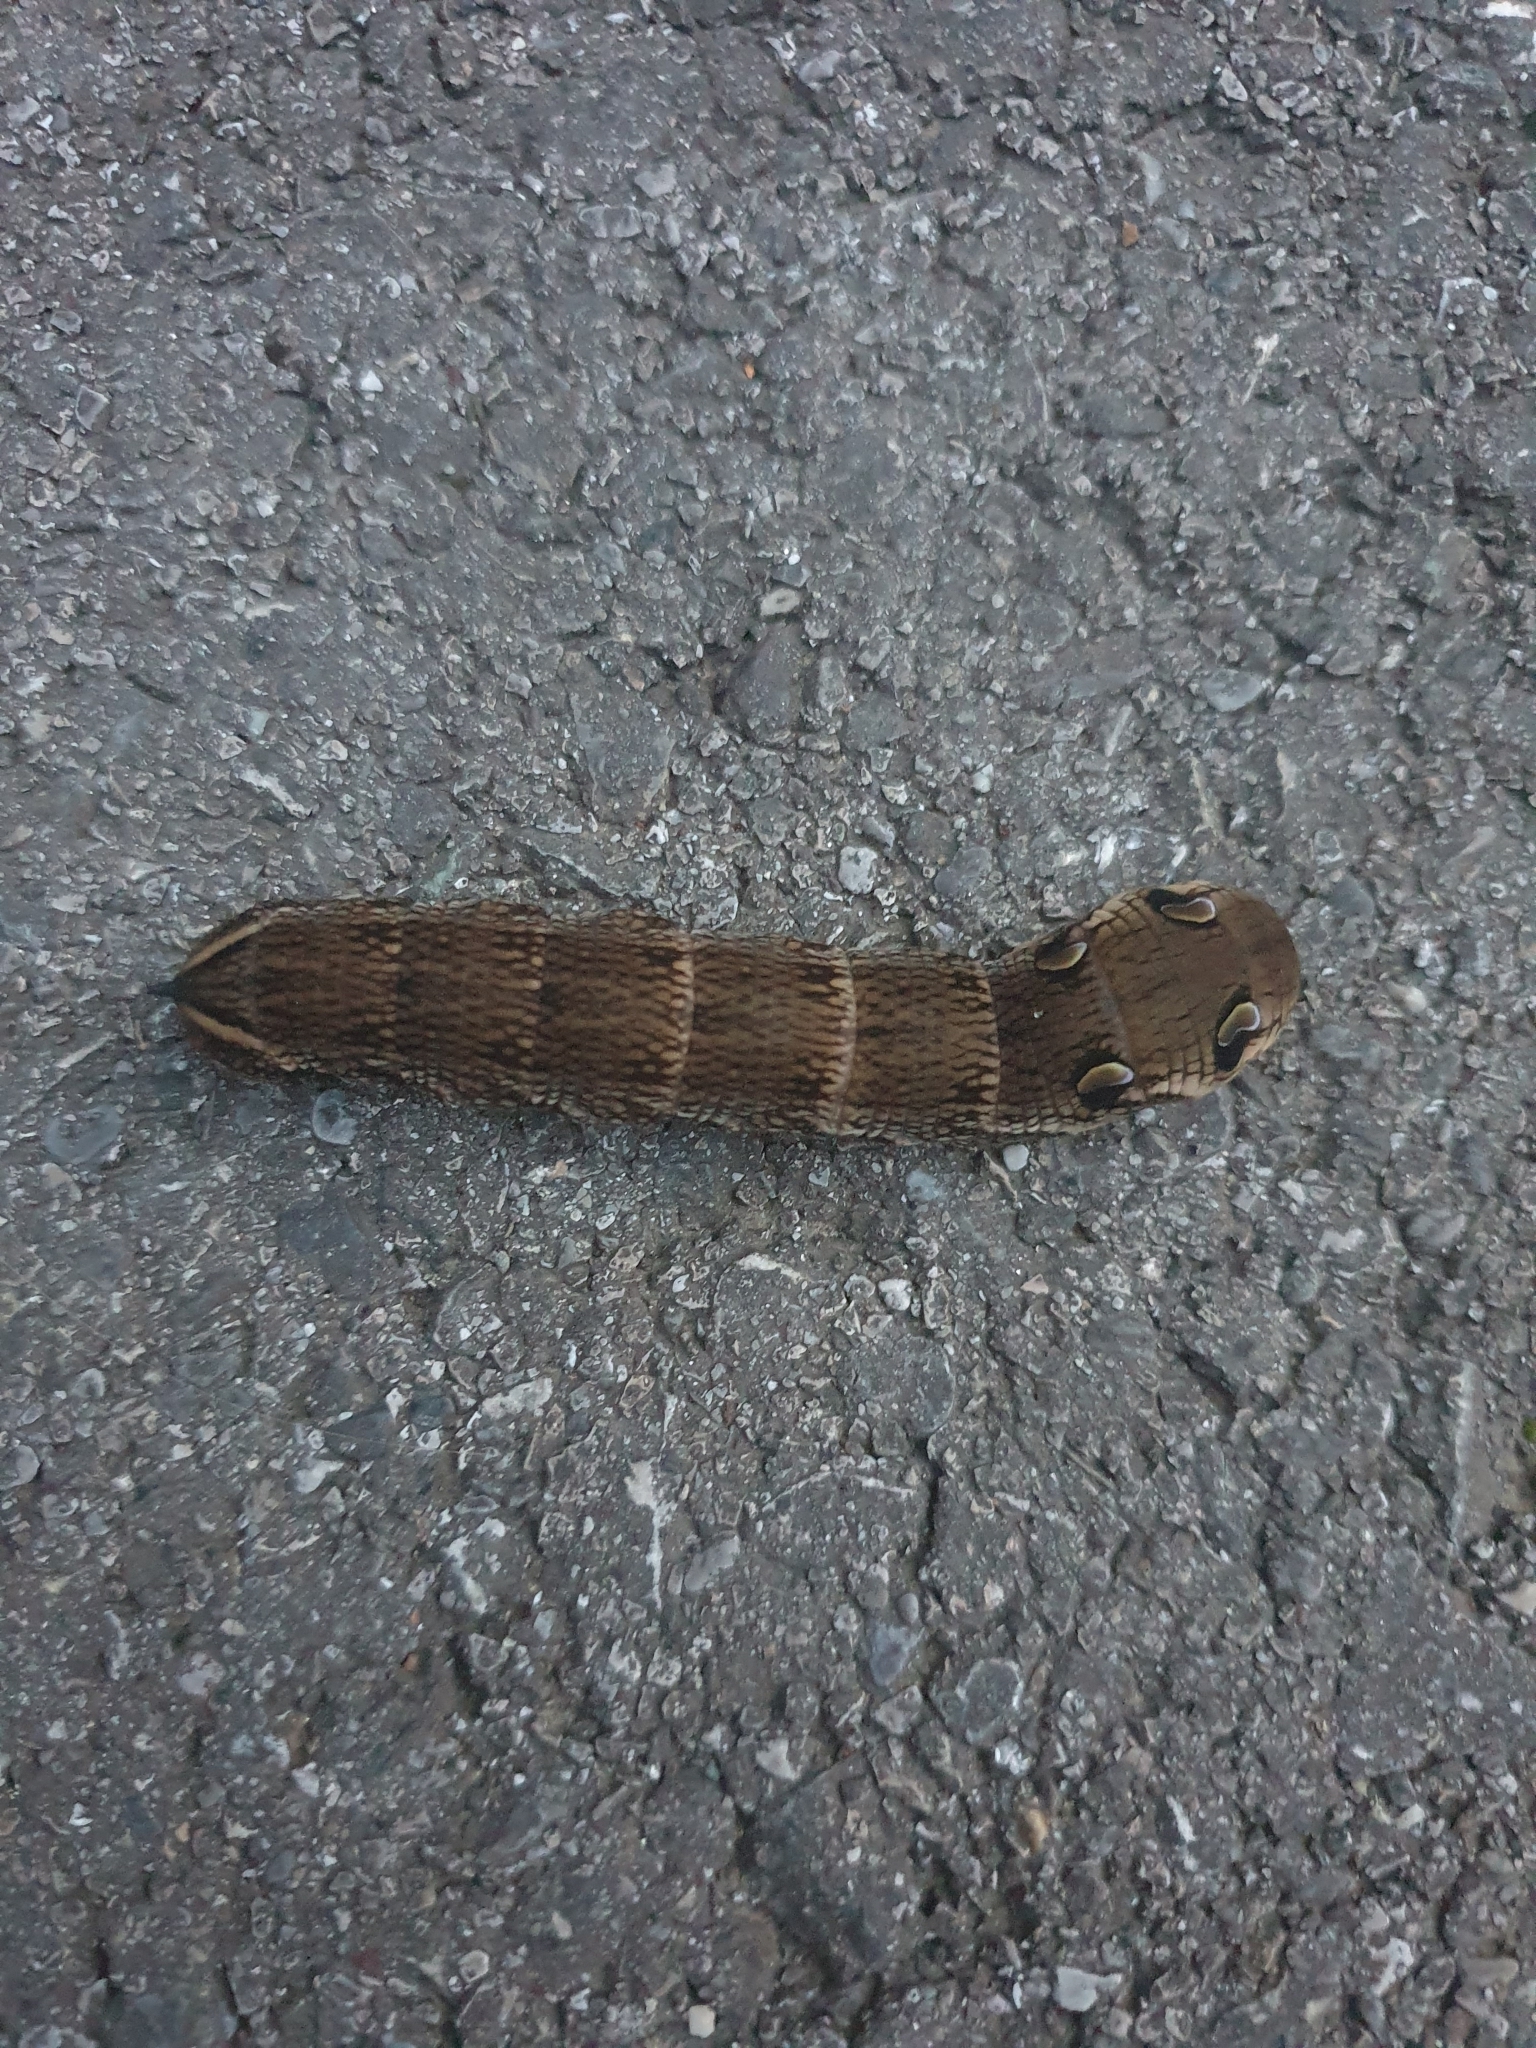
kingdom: Animalia
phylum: Arthropoda
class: Insecta
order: Lepidoptera
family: Sphingidae
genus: Deilephila
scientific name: Deilephila elpenor
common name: Elephant hawk-moth
